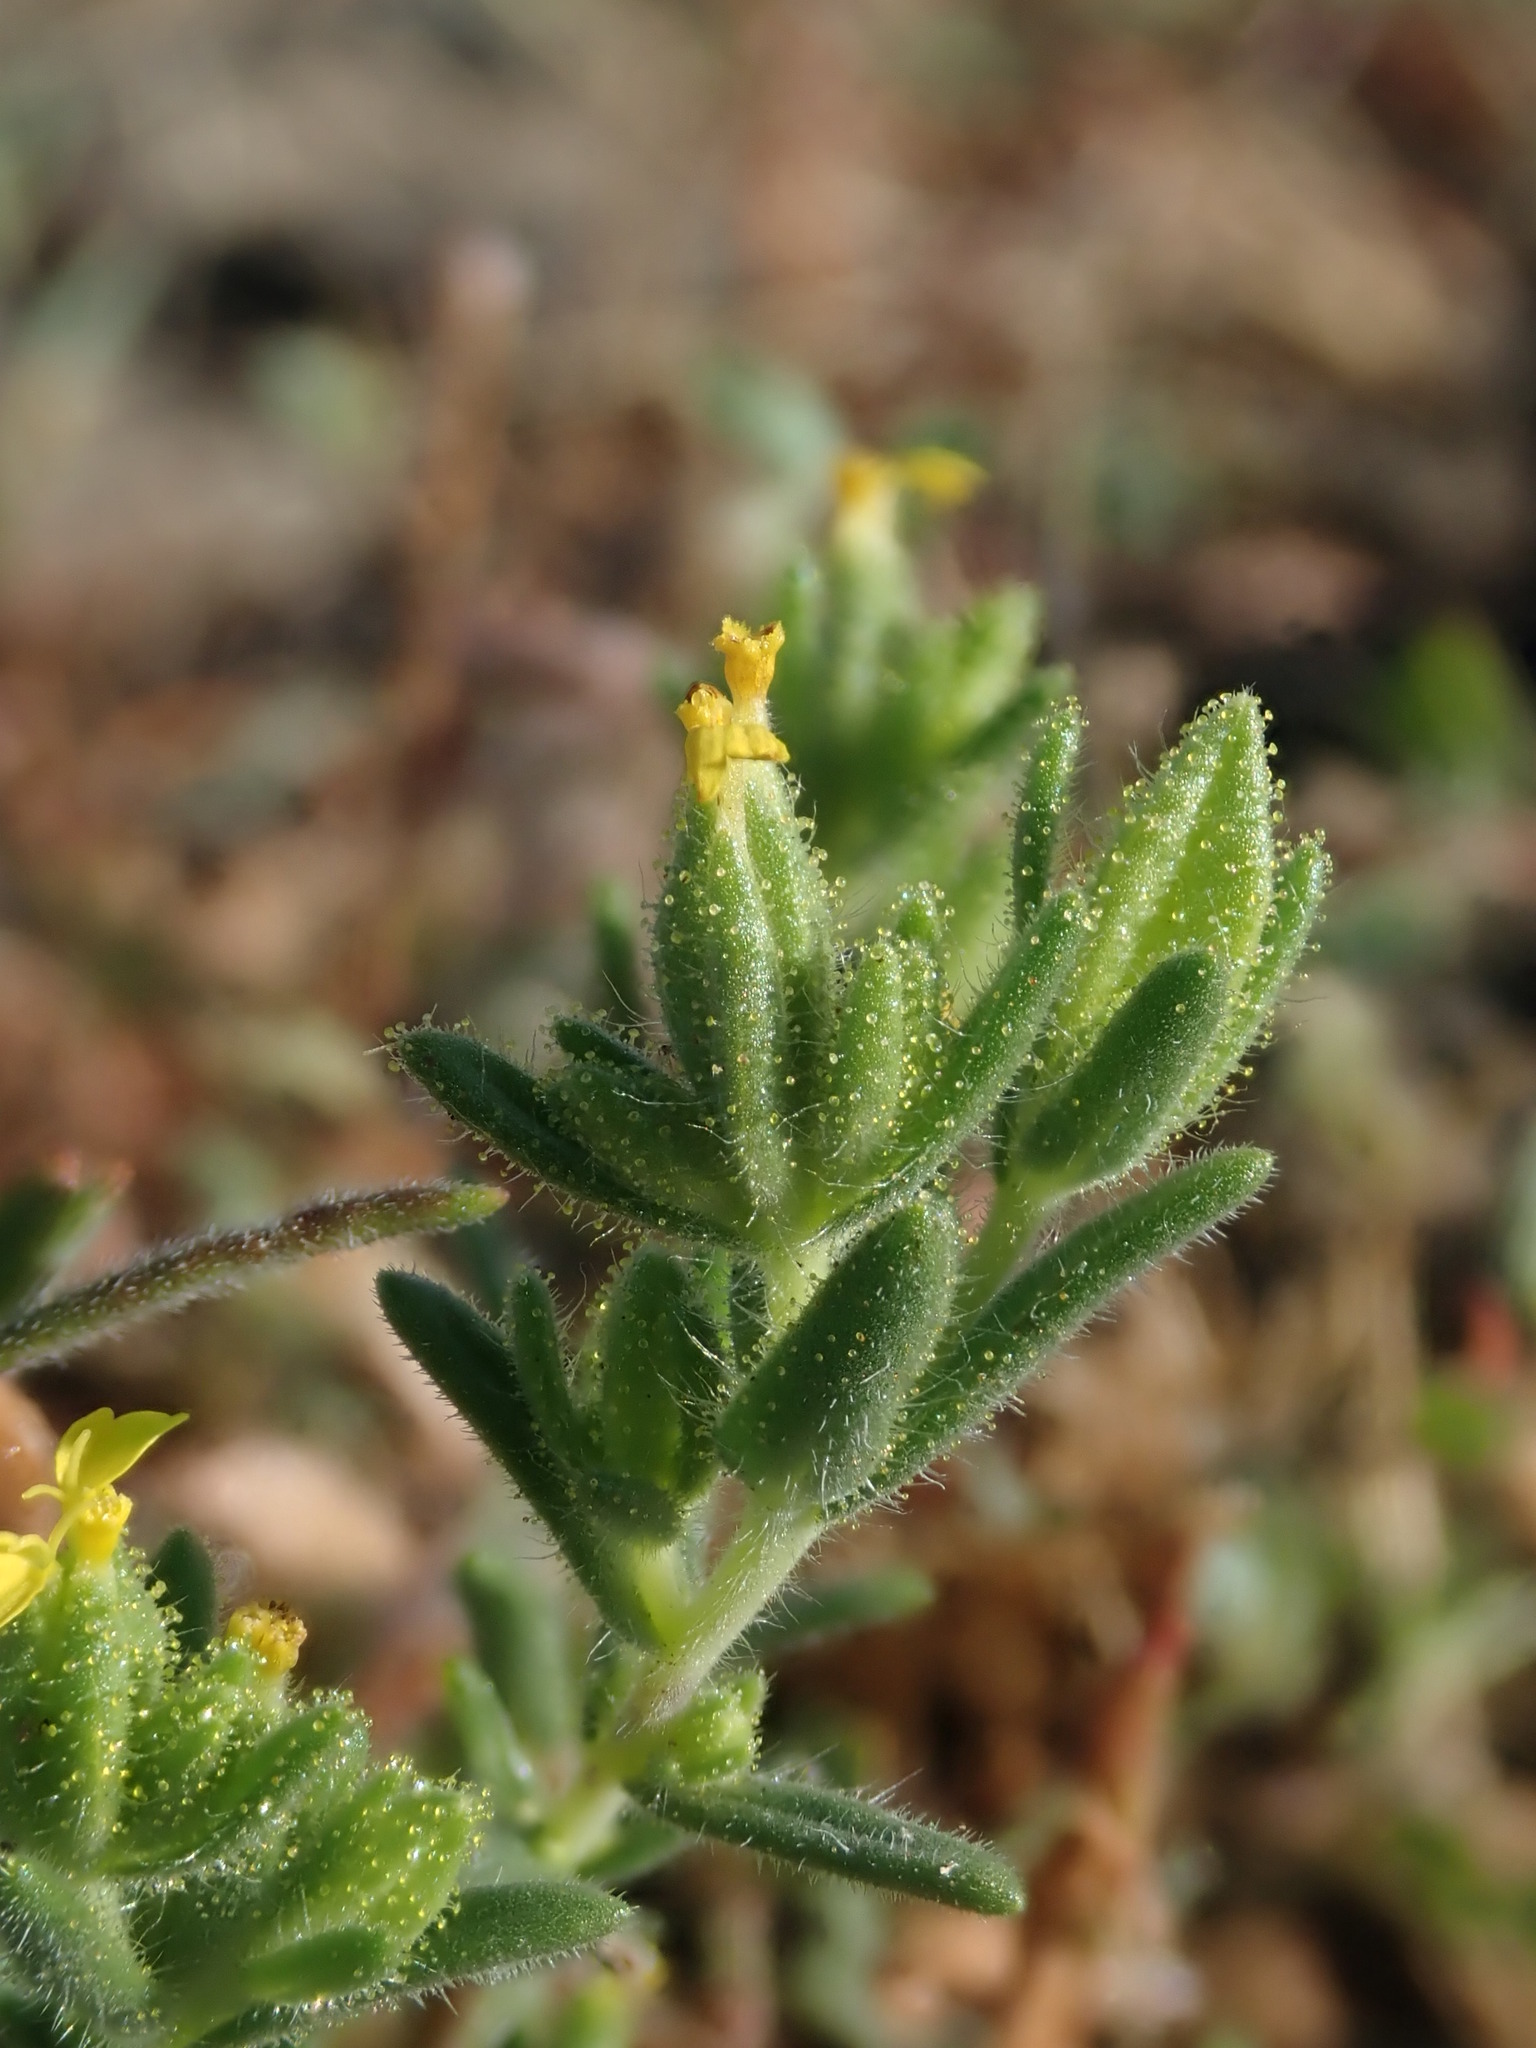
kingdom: Plantae
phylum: Tracheophyta
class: Magnoliopsida
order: Asterales
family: Asteraceae
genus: Madia
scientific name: Madia glomerata
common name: Mountain tarweed
